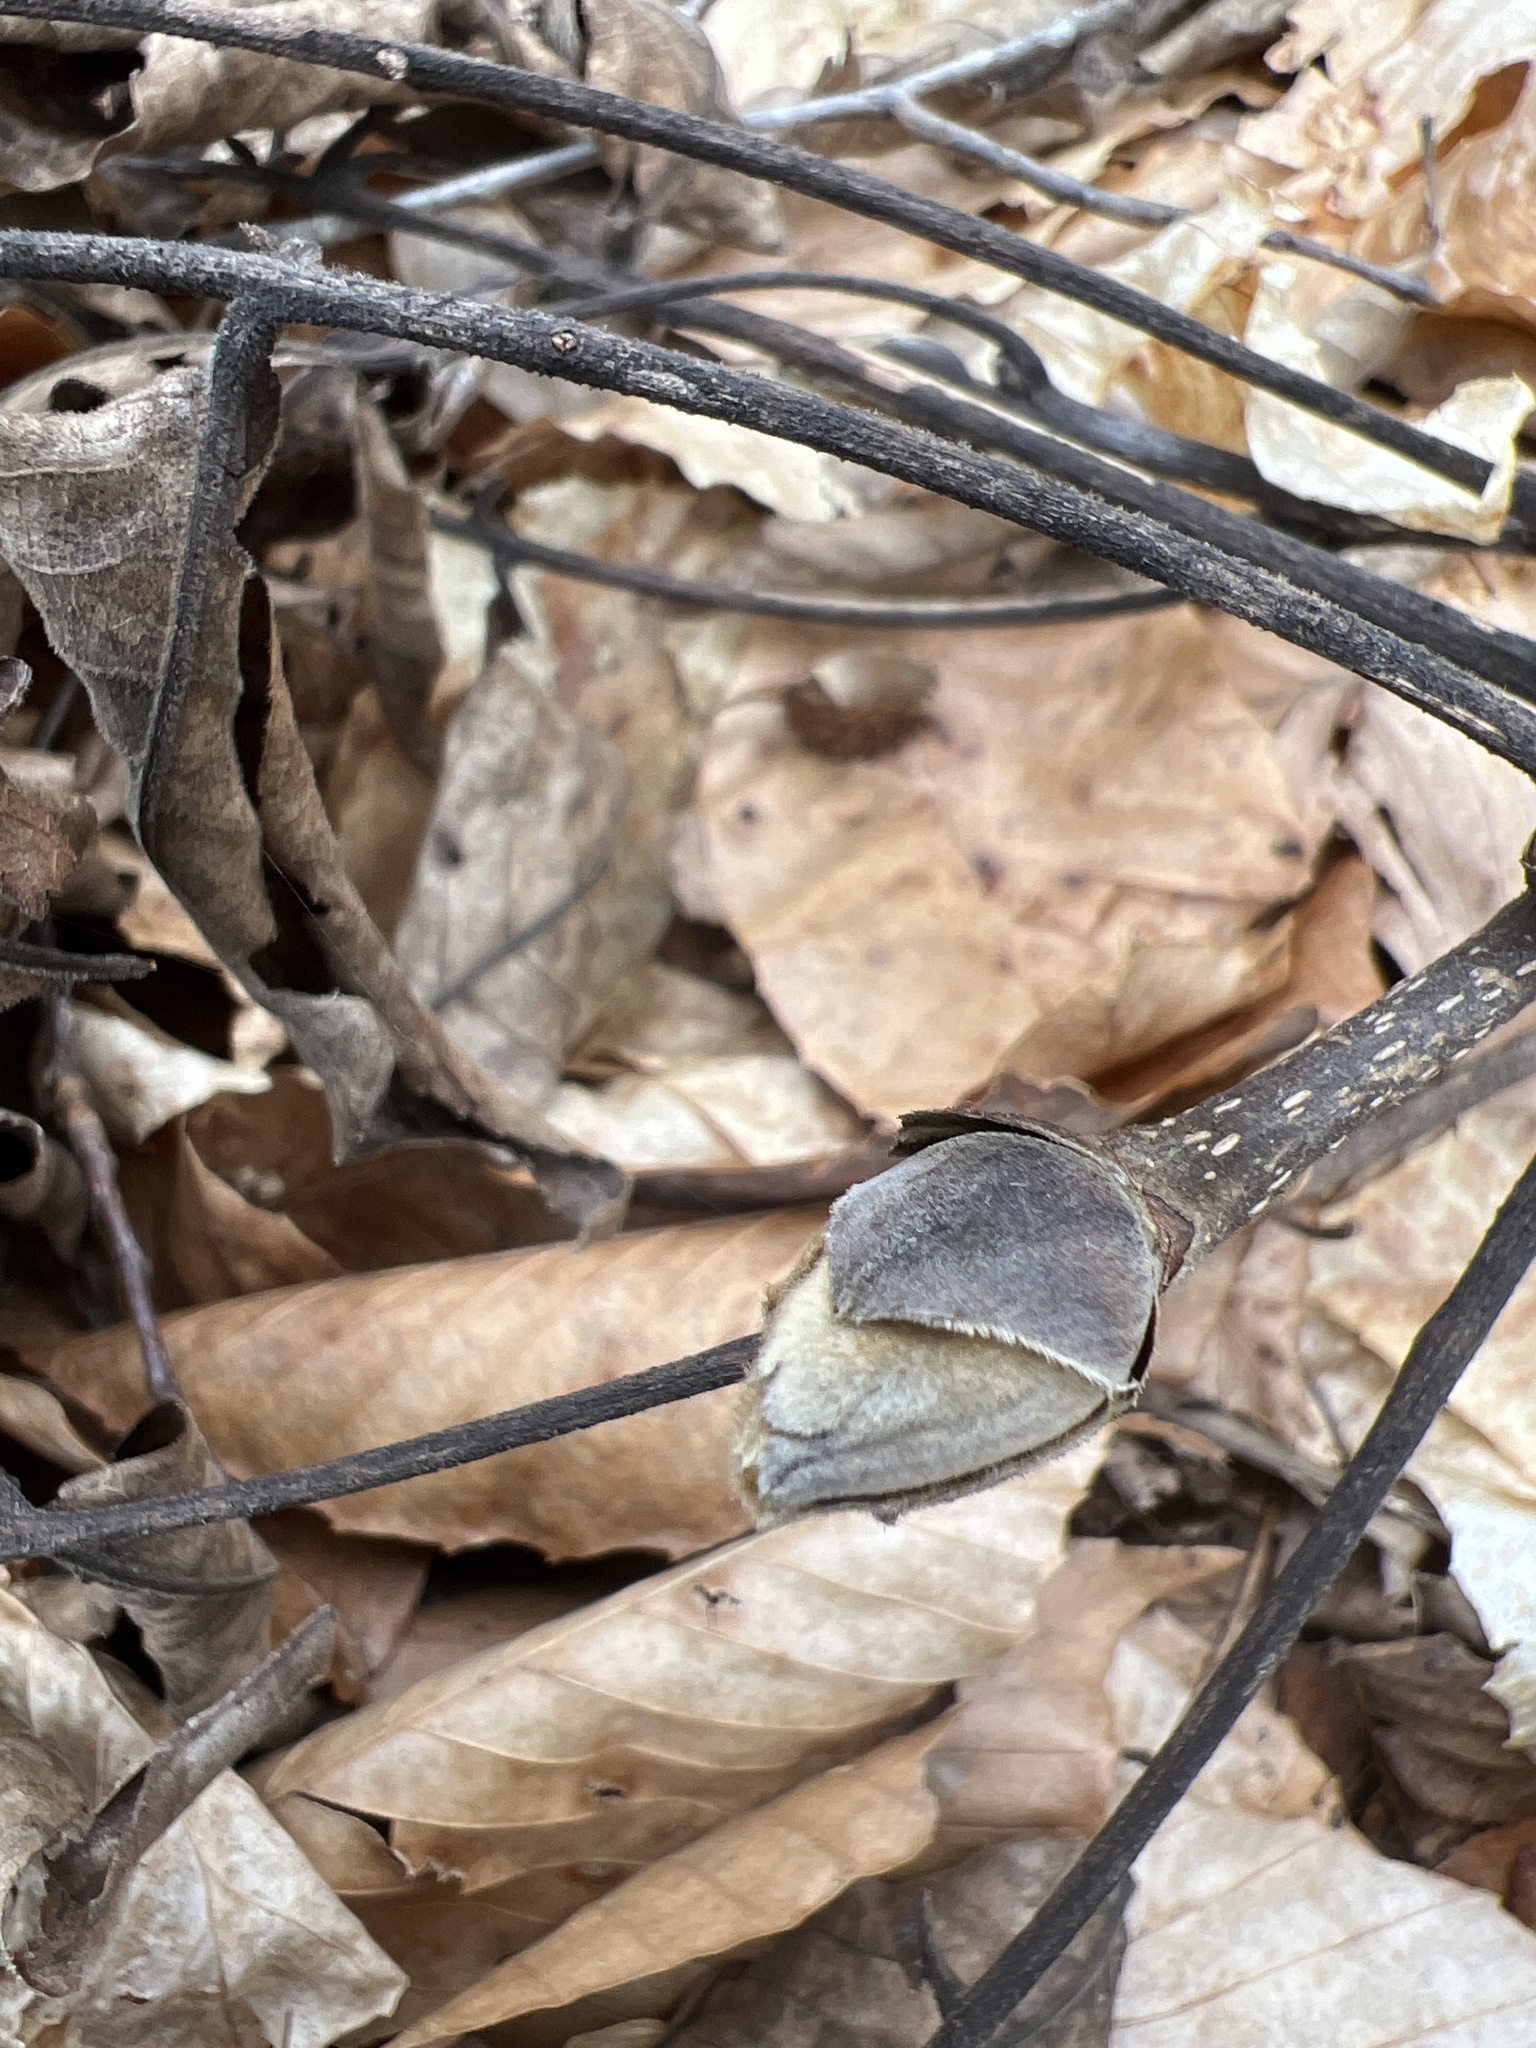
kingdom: Plantae
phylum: Tracheophyta
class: Magnoliopsida
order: Fagales
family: Juglandaceae
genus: Carya
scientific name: Carya ovata
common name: Shagbark hickory
